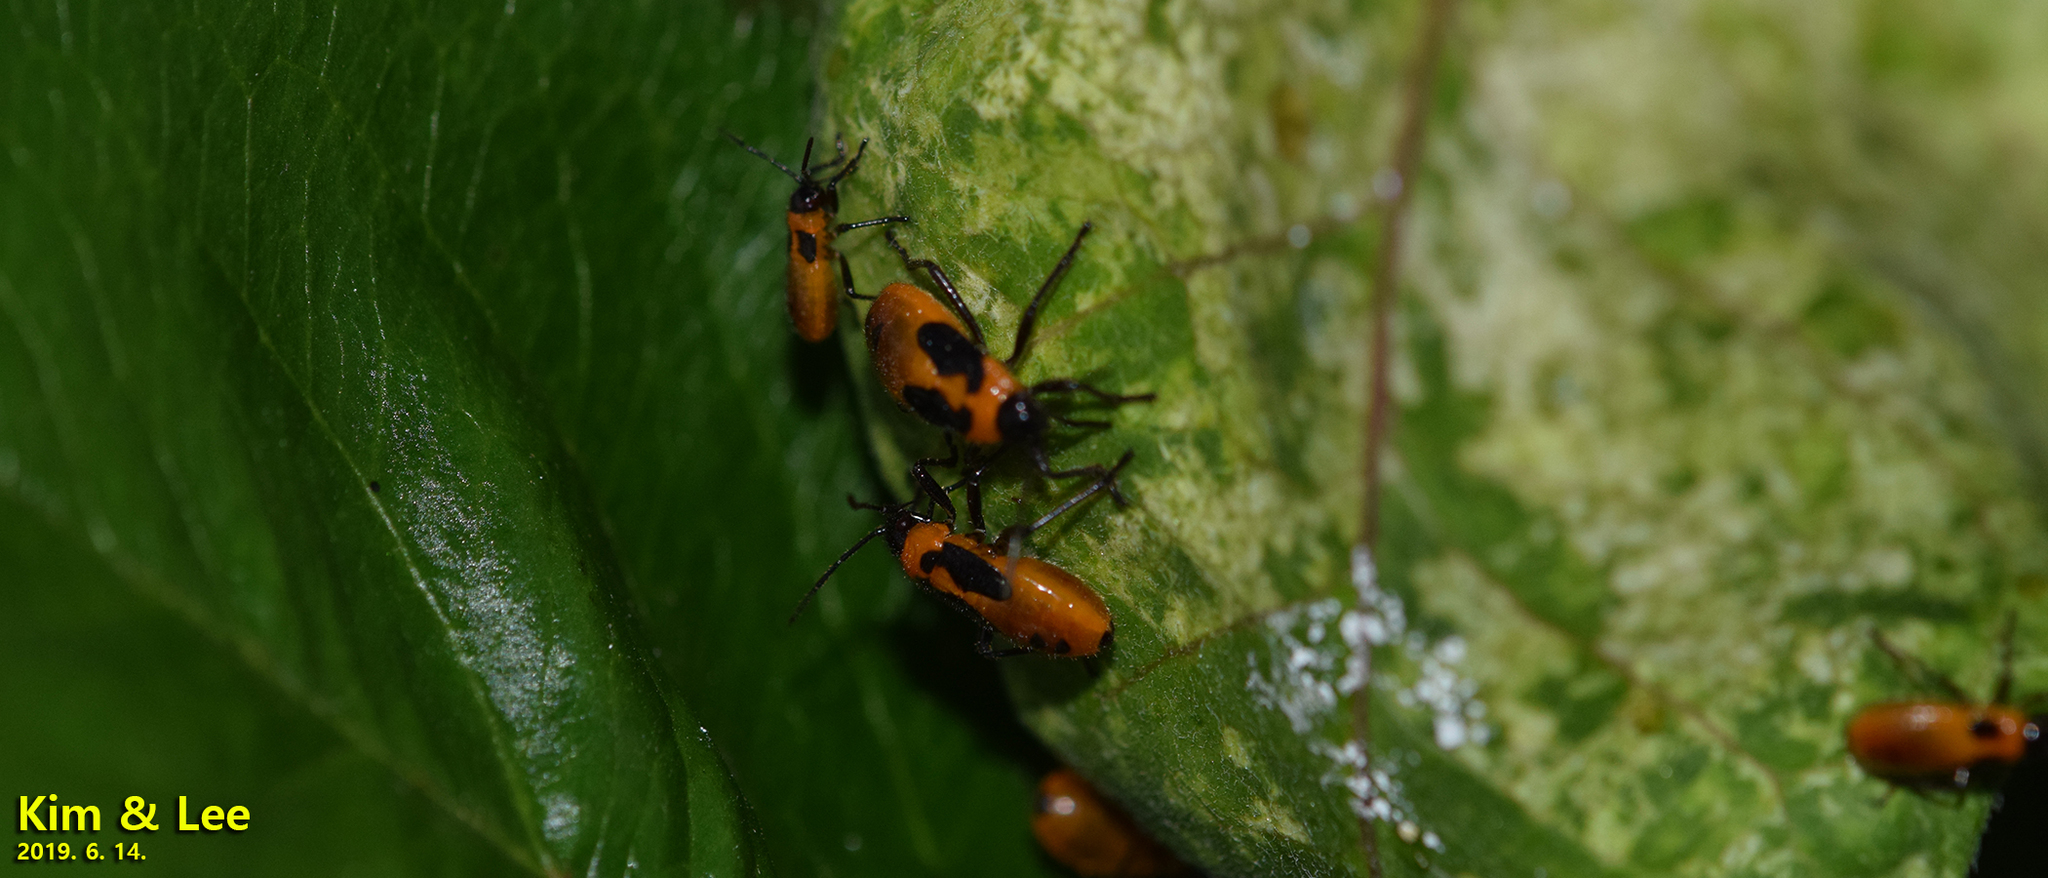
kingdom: Animalia
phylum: Arthropoda
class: Insecta
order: Hemiptera
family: Lygaeidae
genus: Tropidothorax
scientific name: Tropidothorax cruciger
